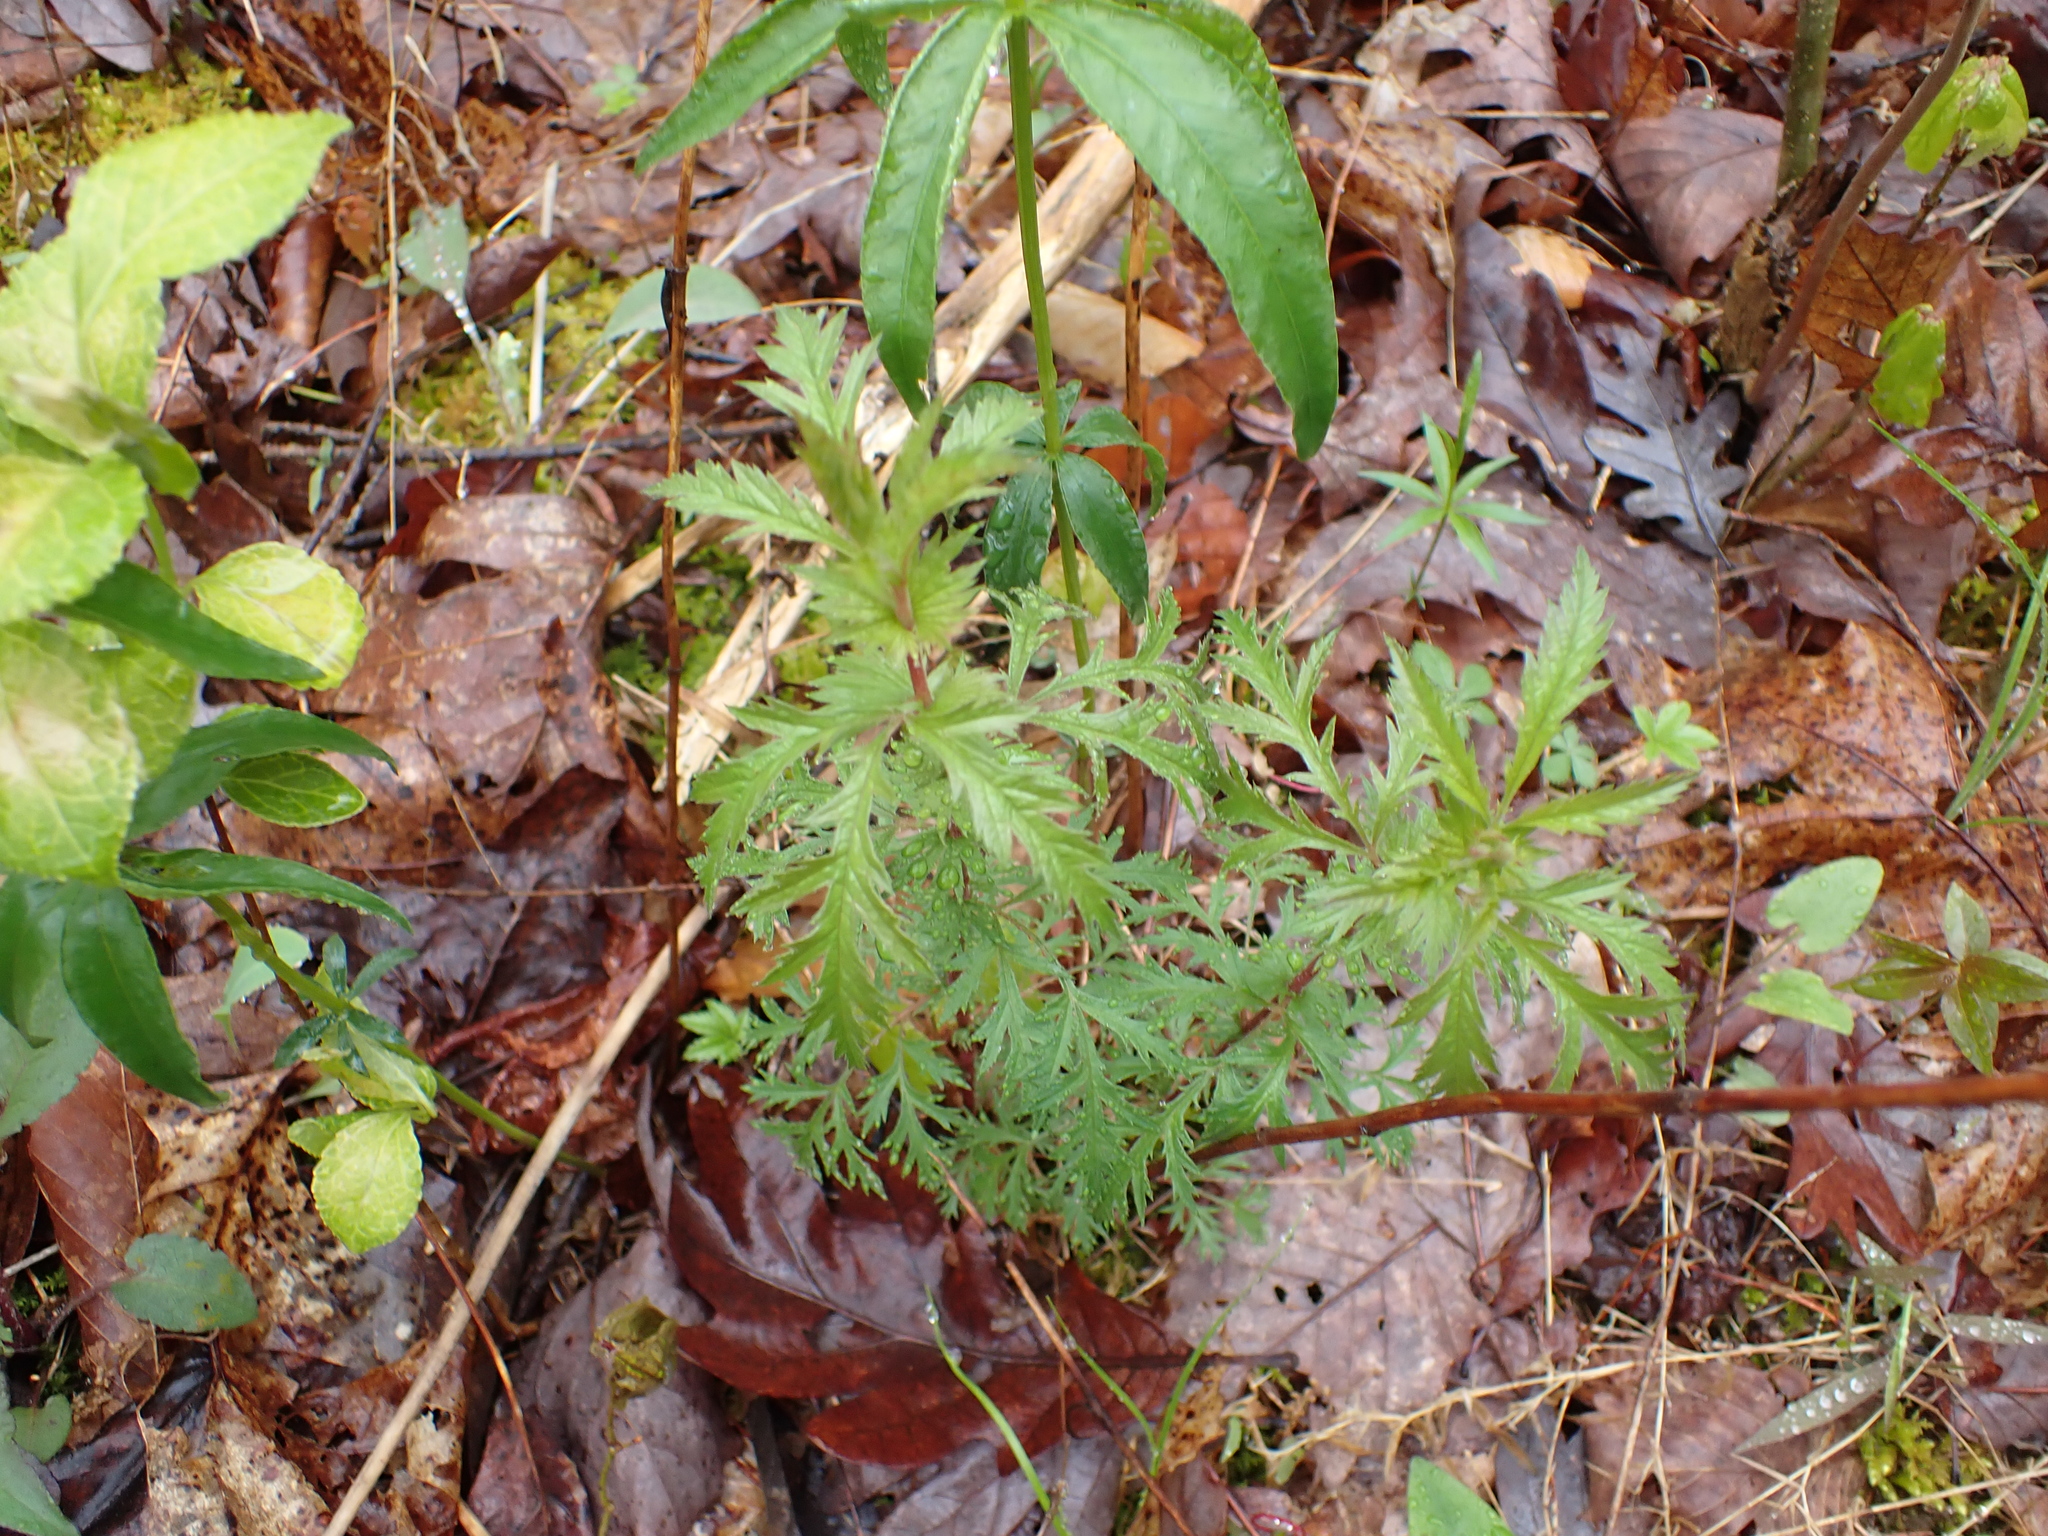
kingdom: Plantae
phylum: Tracheophyta
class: Magnoliopsida
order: Rosales
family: Rosaceae
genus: Gillenia
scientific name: Gillenia stipulata
